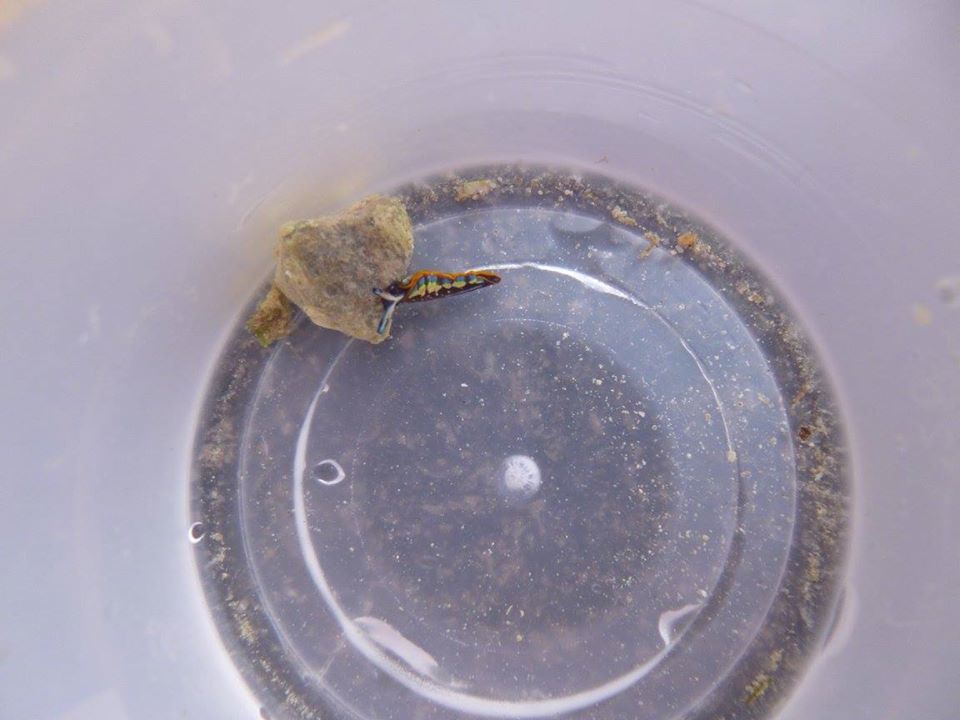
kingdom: Animalia
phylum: Mollusca
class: Gastropoda
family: Plakobranchidae
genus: Thuridilla
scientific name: Thuridilla hopei
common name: Splendid elysia
